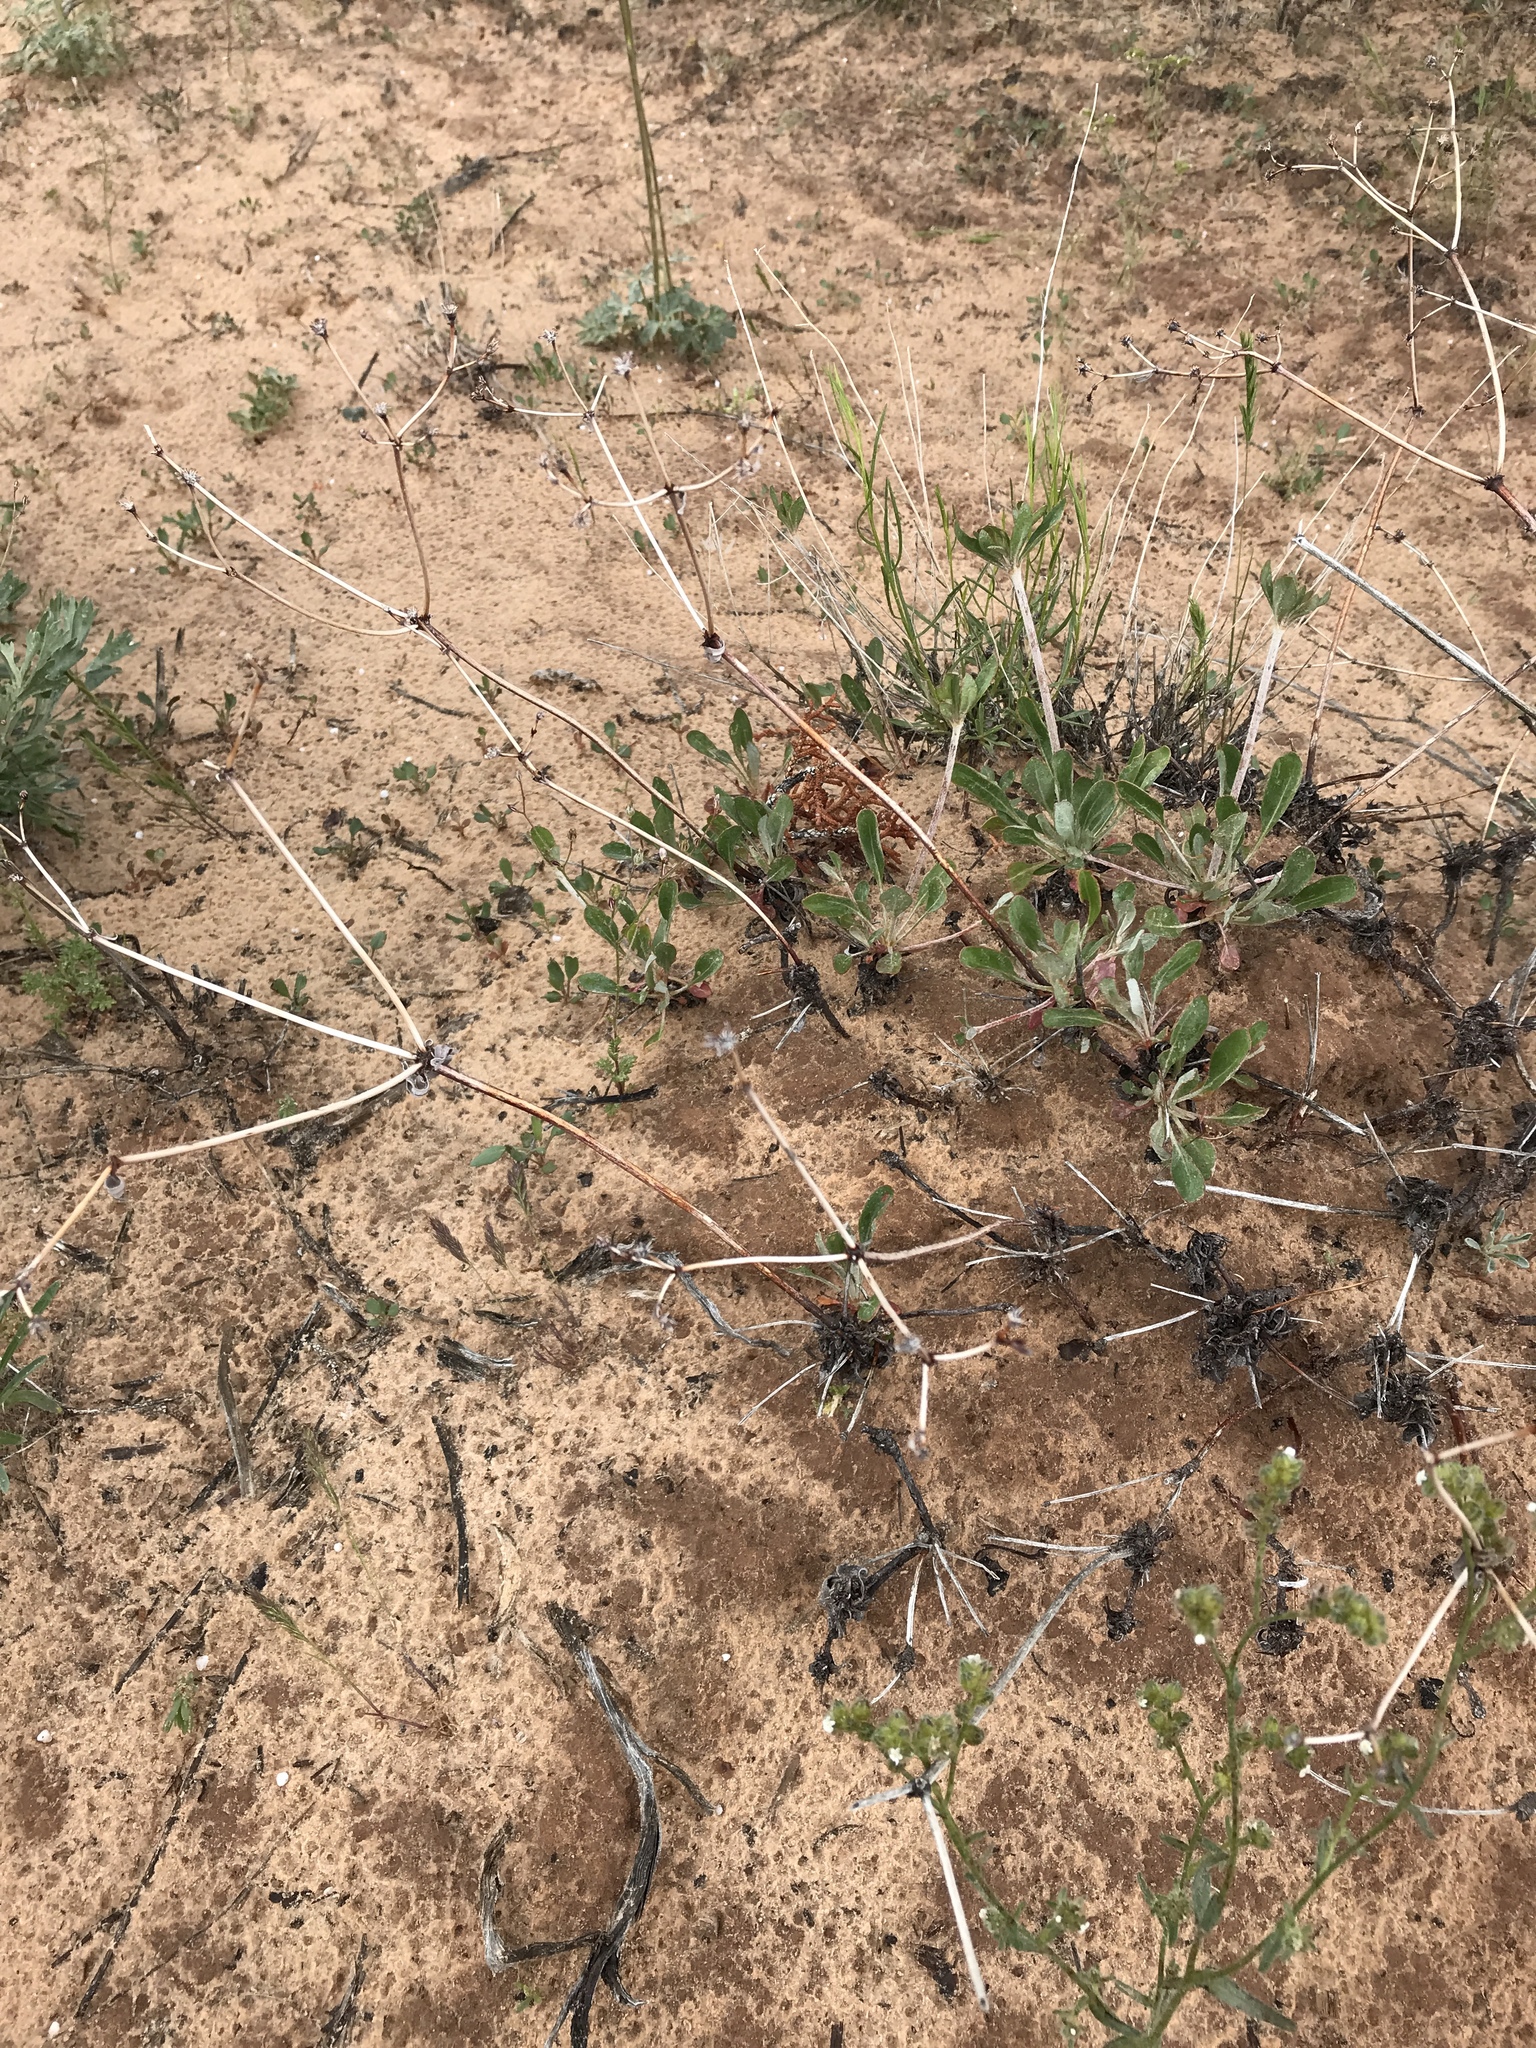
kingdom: Plantae
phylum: Tracheophyta
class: Magnoliopsida
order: Caryophyllales
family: Polygonaceae
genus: Eriogonum
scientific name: Eriogonum umbellatum
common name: Sulfur-buckwheat
